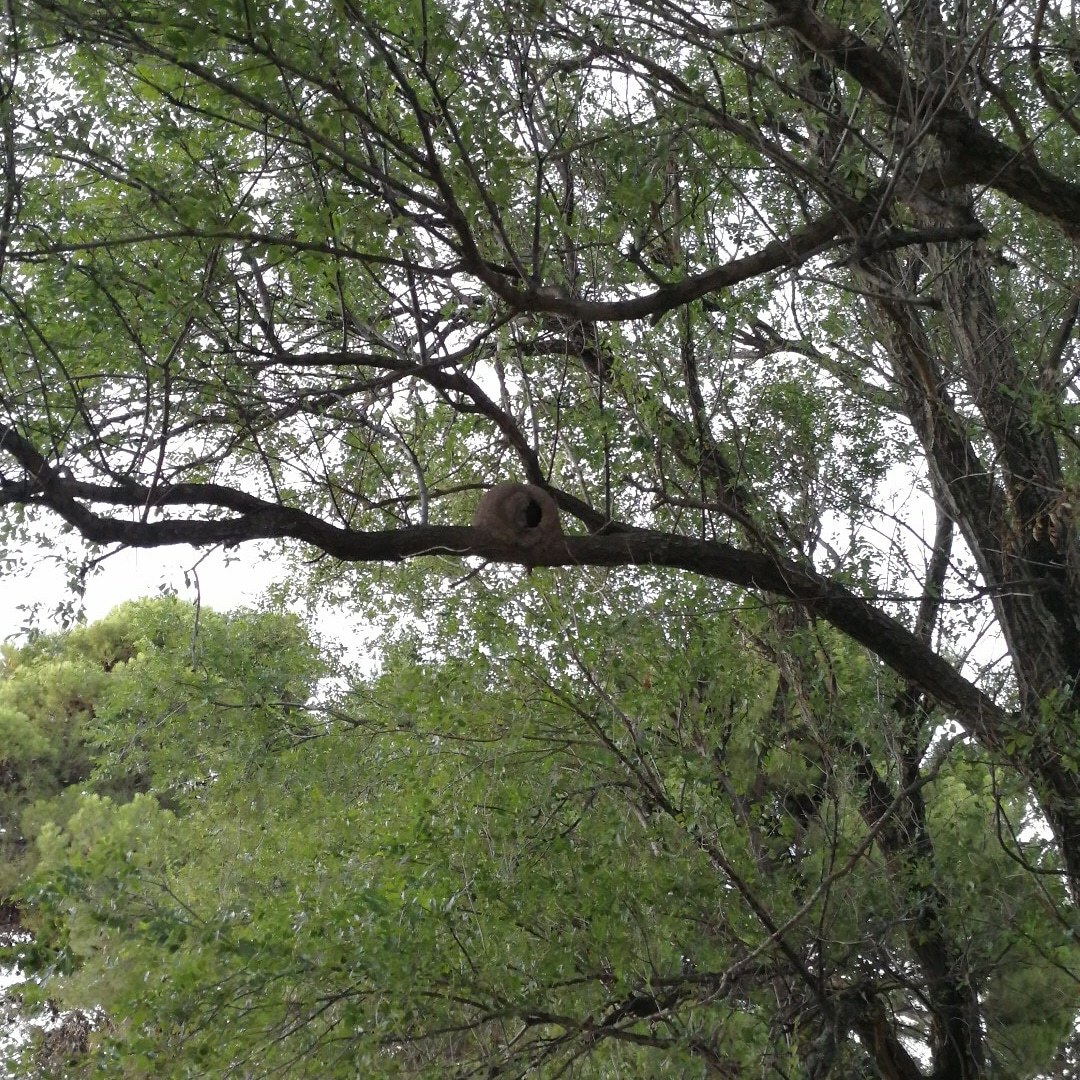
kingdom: Animalia
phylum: Chordata
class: Aves
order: Passeriformes
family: Furnariidae
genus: Furnarius
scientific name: Furnarius rufus
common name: Rufous hornero
